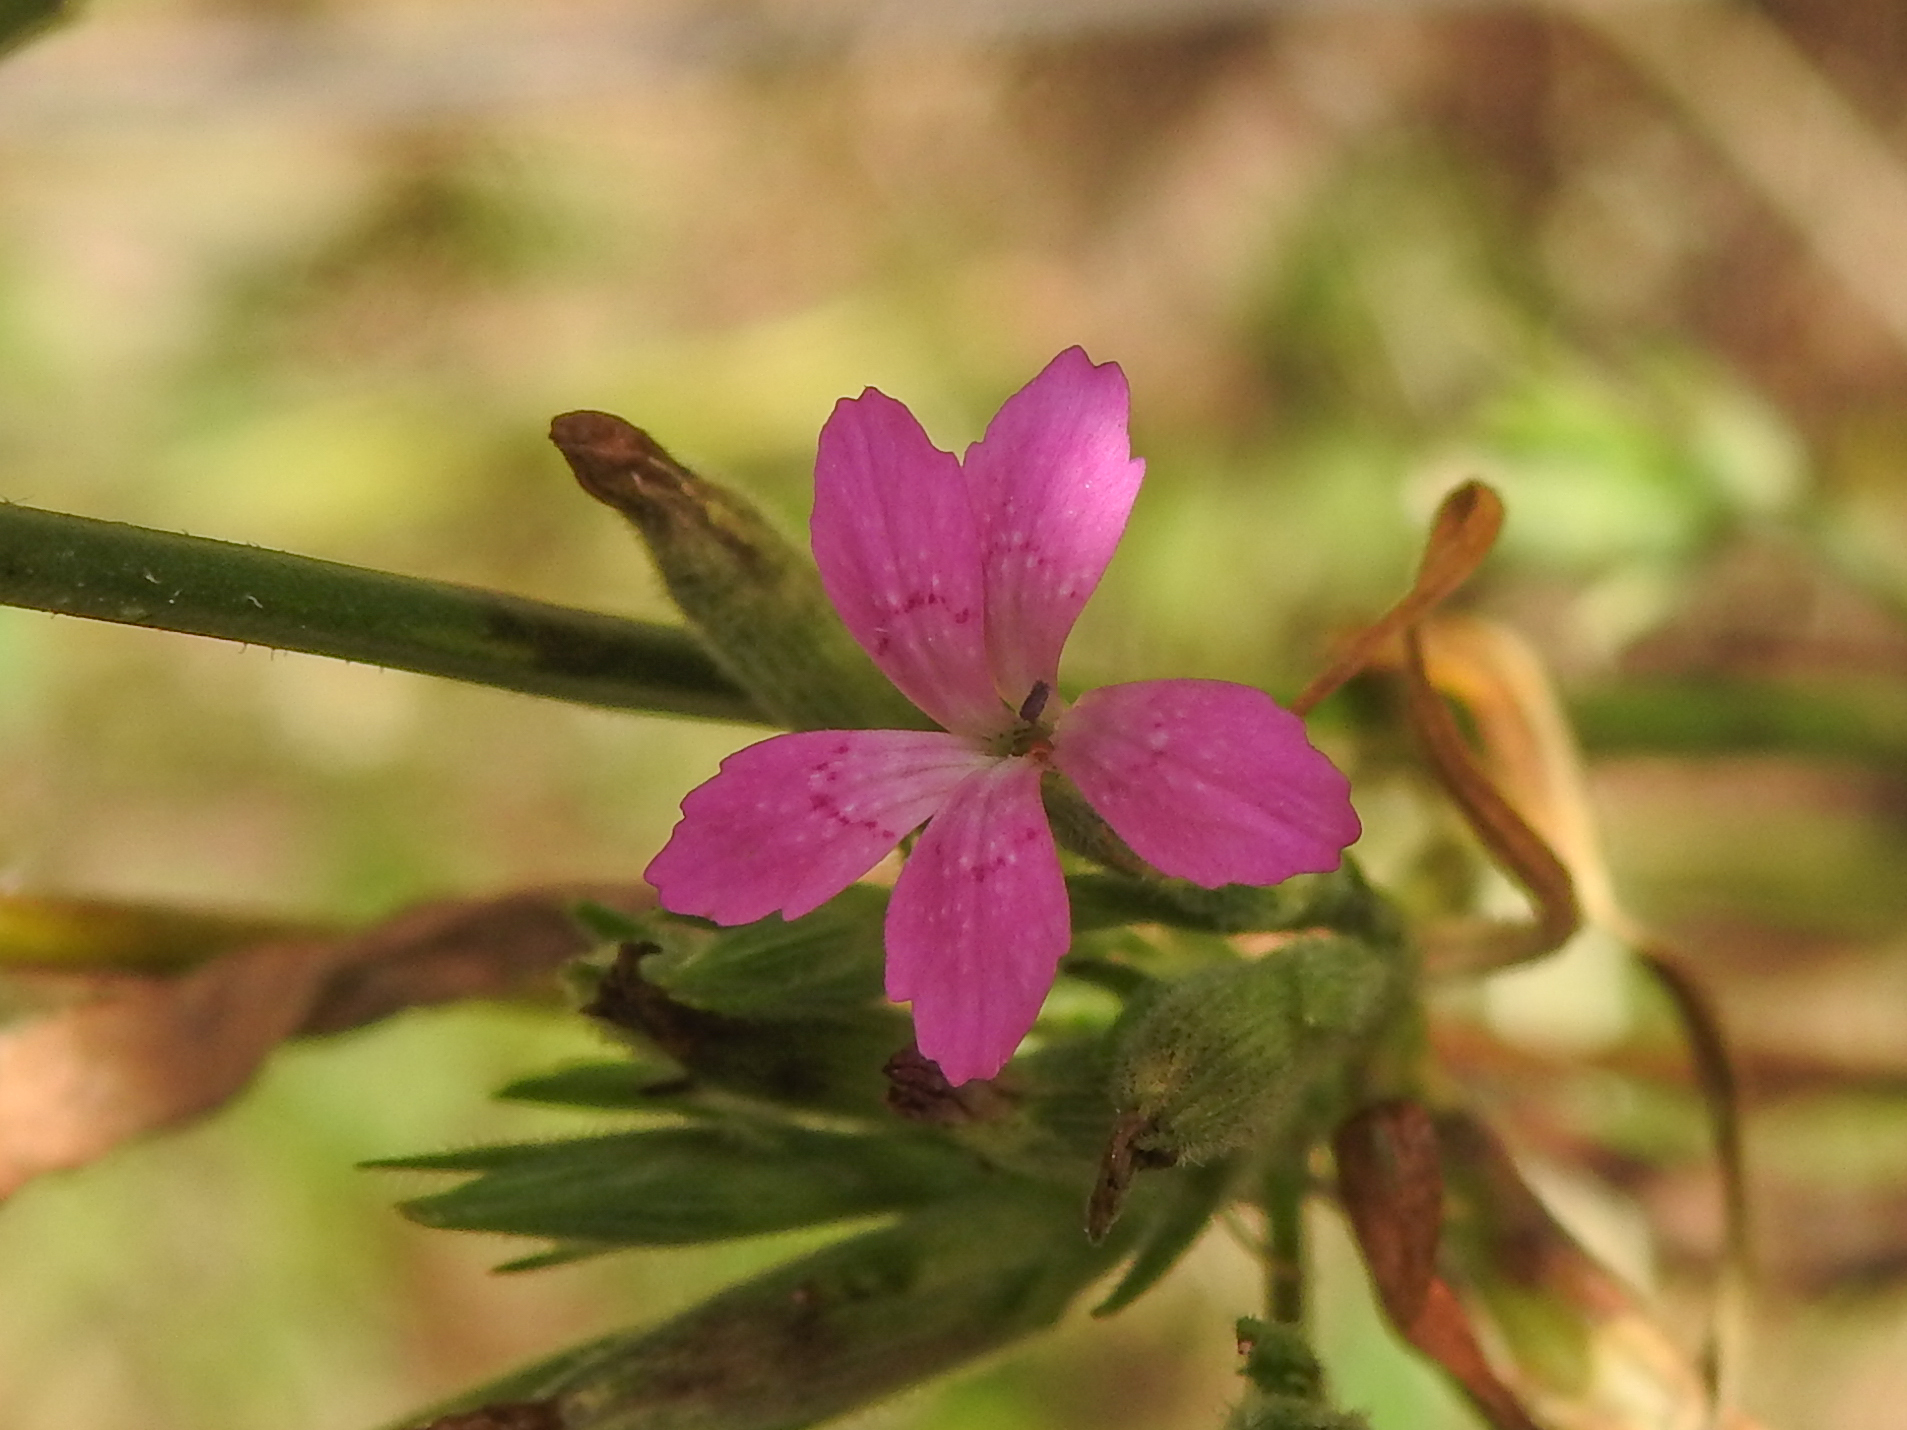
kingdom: Plantae
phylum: Tracheophyta
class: Magnoliopsida
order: Caryophyllales
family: Caryophyllaceae
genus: Dianthus
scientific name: Dianthus armeria
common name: Deptford pink
